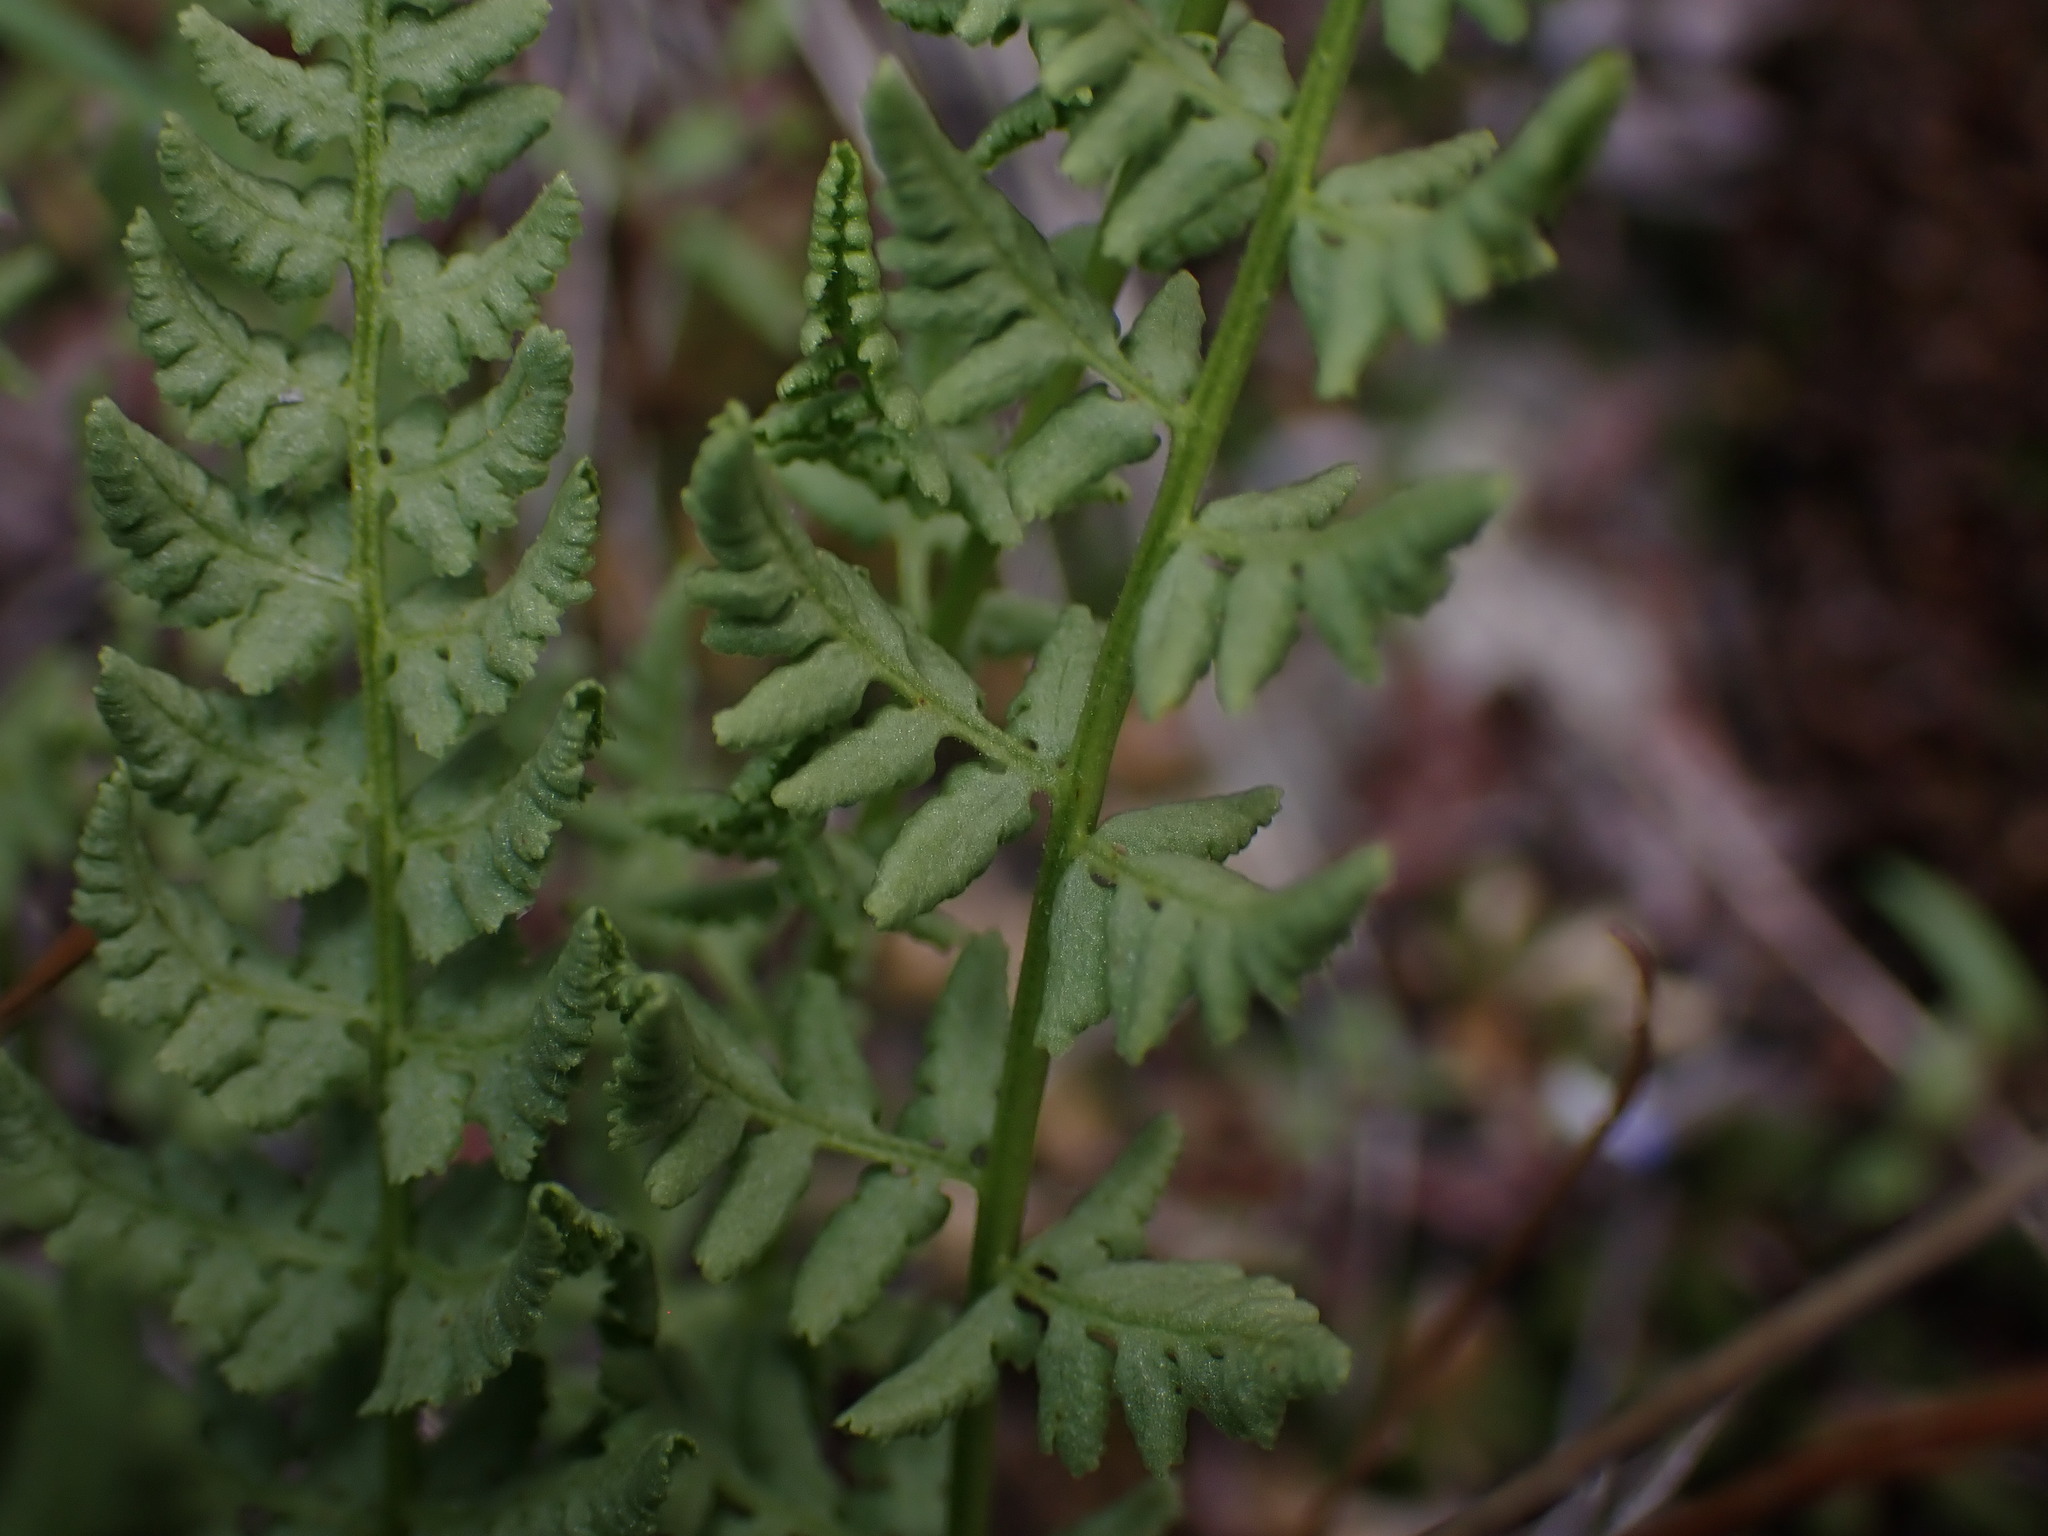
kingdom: Plantae
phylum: Tracheophyta
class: Polypodiopsida
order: Polypodiales
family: Woodsiaceae
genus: Physematium
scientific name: Physematium oreganum
